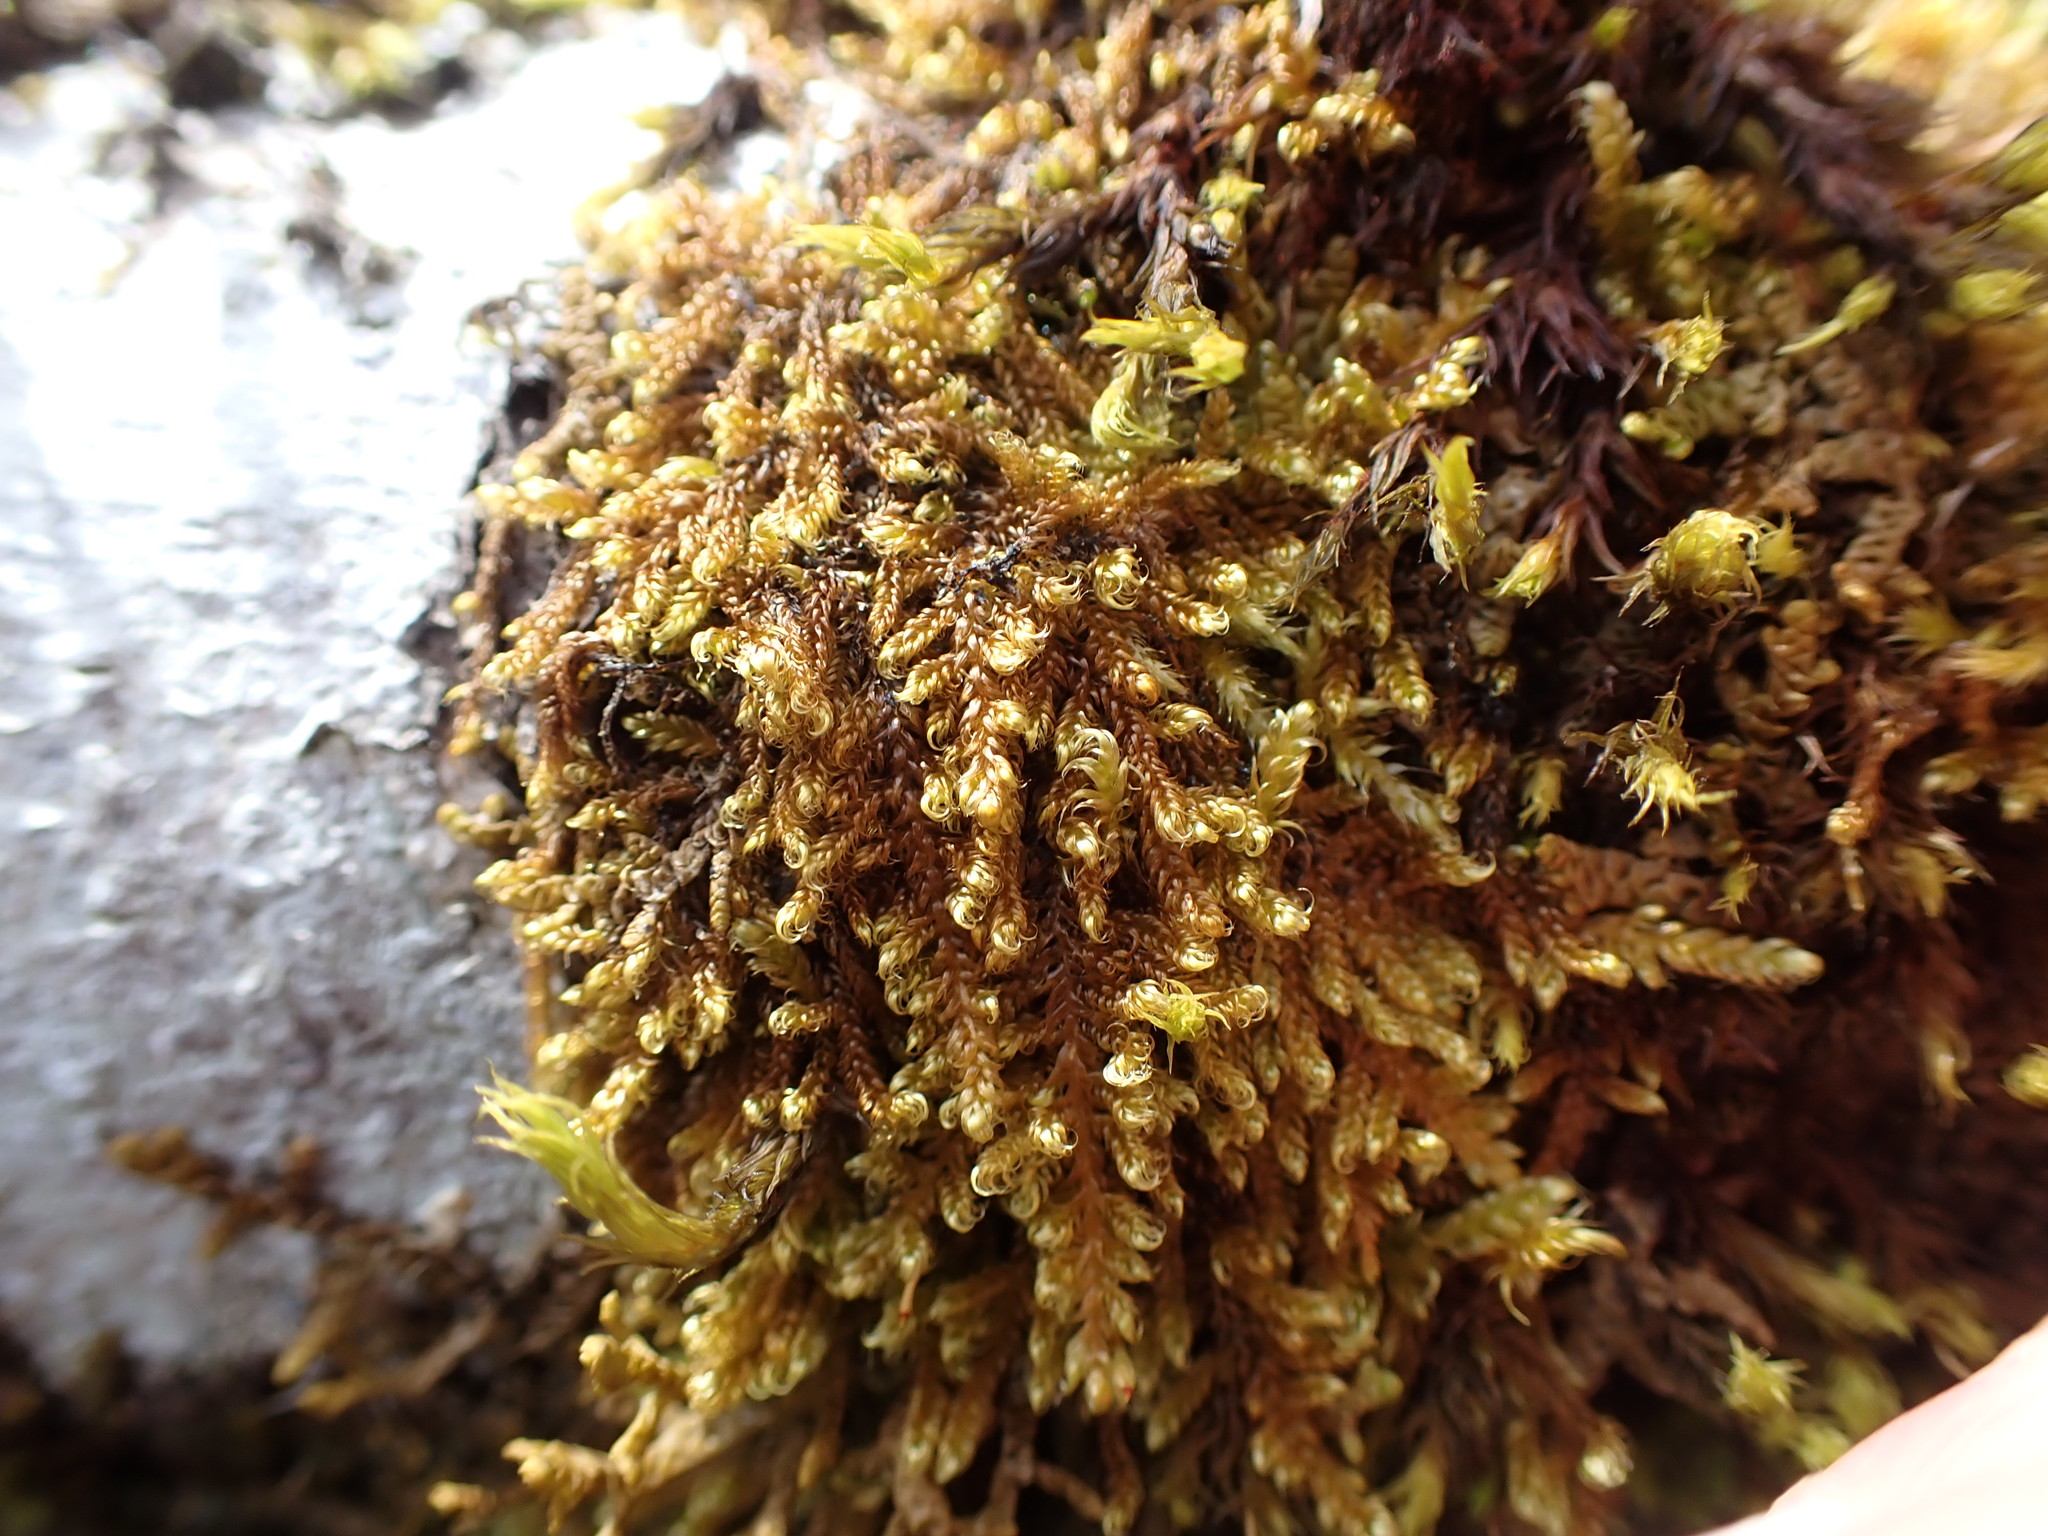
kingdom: Plantae
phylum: Bryophyta
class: Bryopsida
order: Hypnales
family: Pylaisiaceae
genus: Calliergonellopsis
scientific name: Calliergonellopsis dieckii
